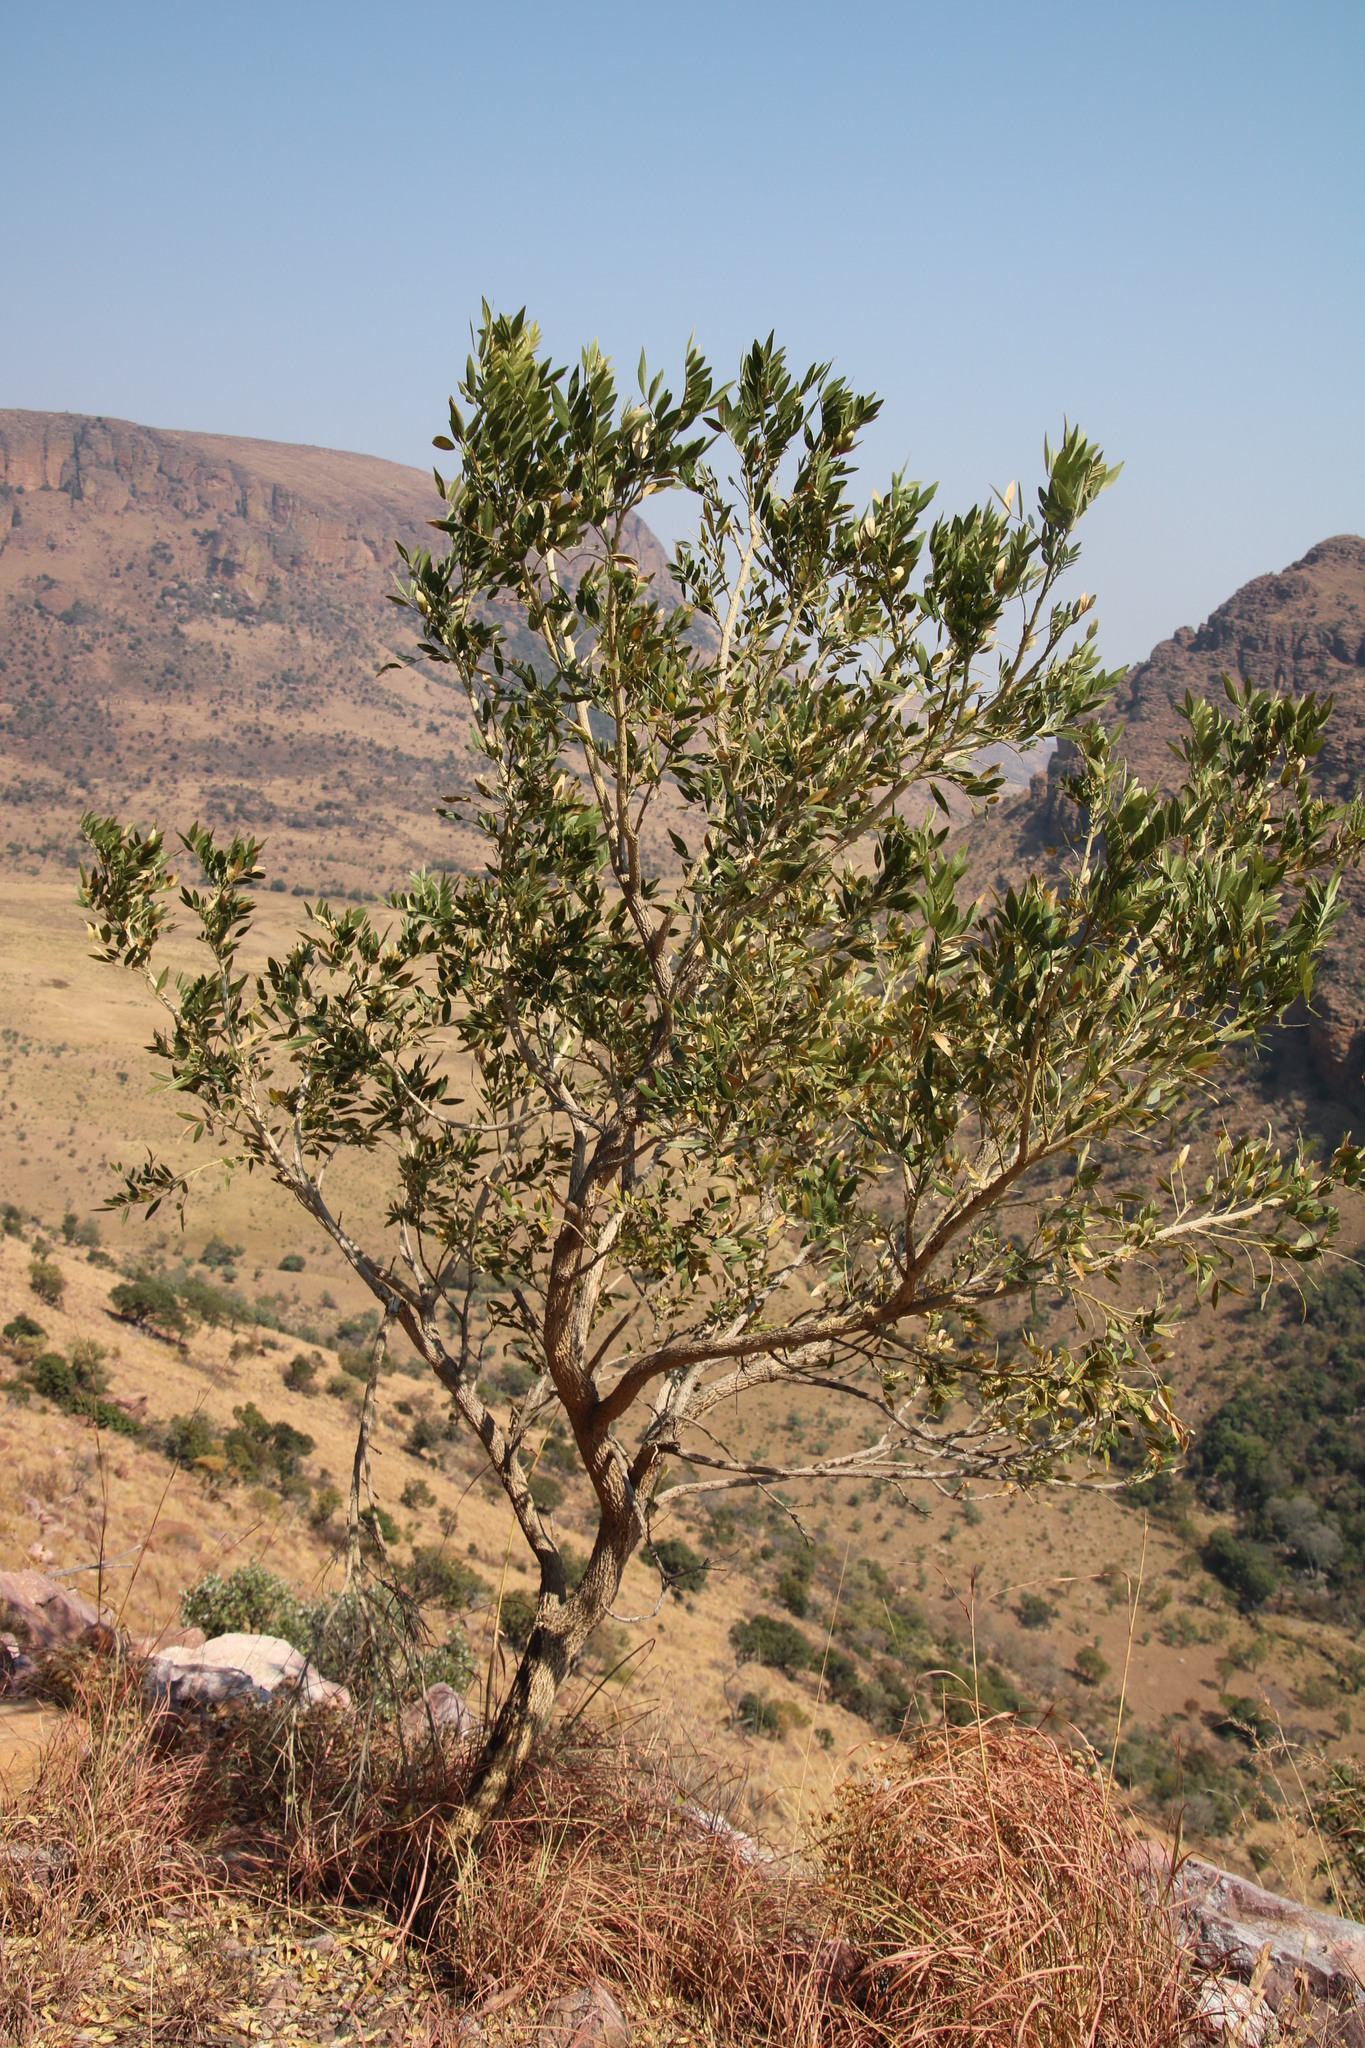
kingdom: Plantae
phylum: Tracheophyta
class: Magnoliopsida
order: Fabales
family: Fabaceae
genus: Mundulea
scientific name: Mundulea sericea
